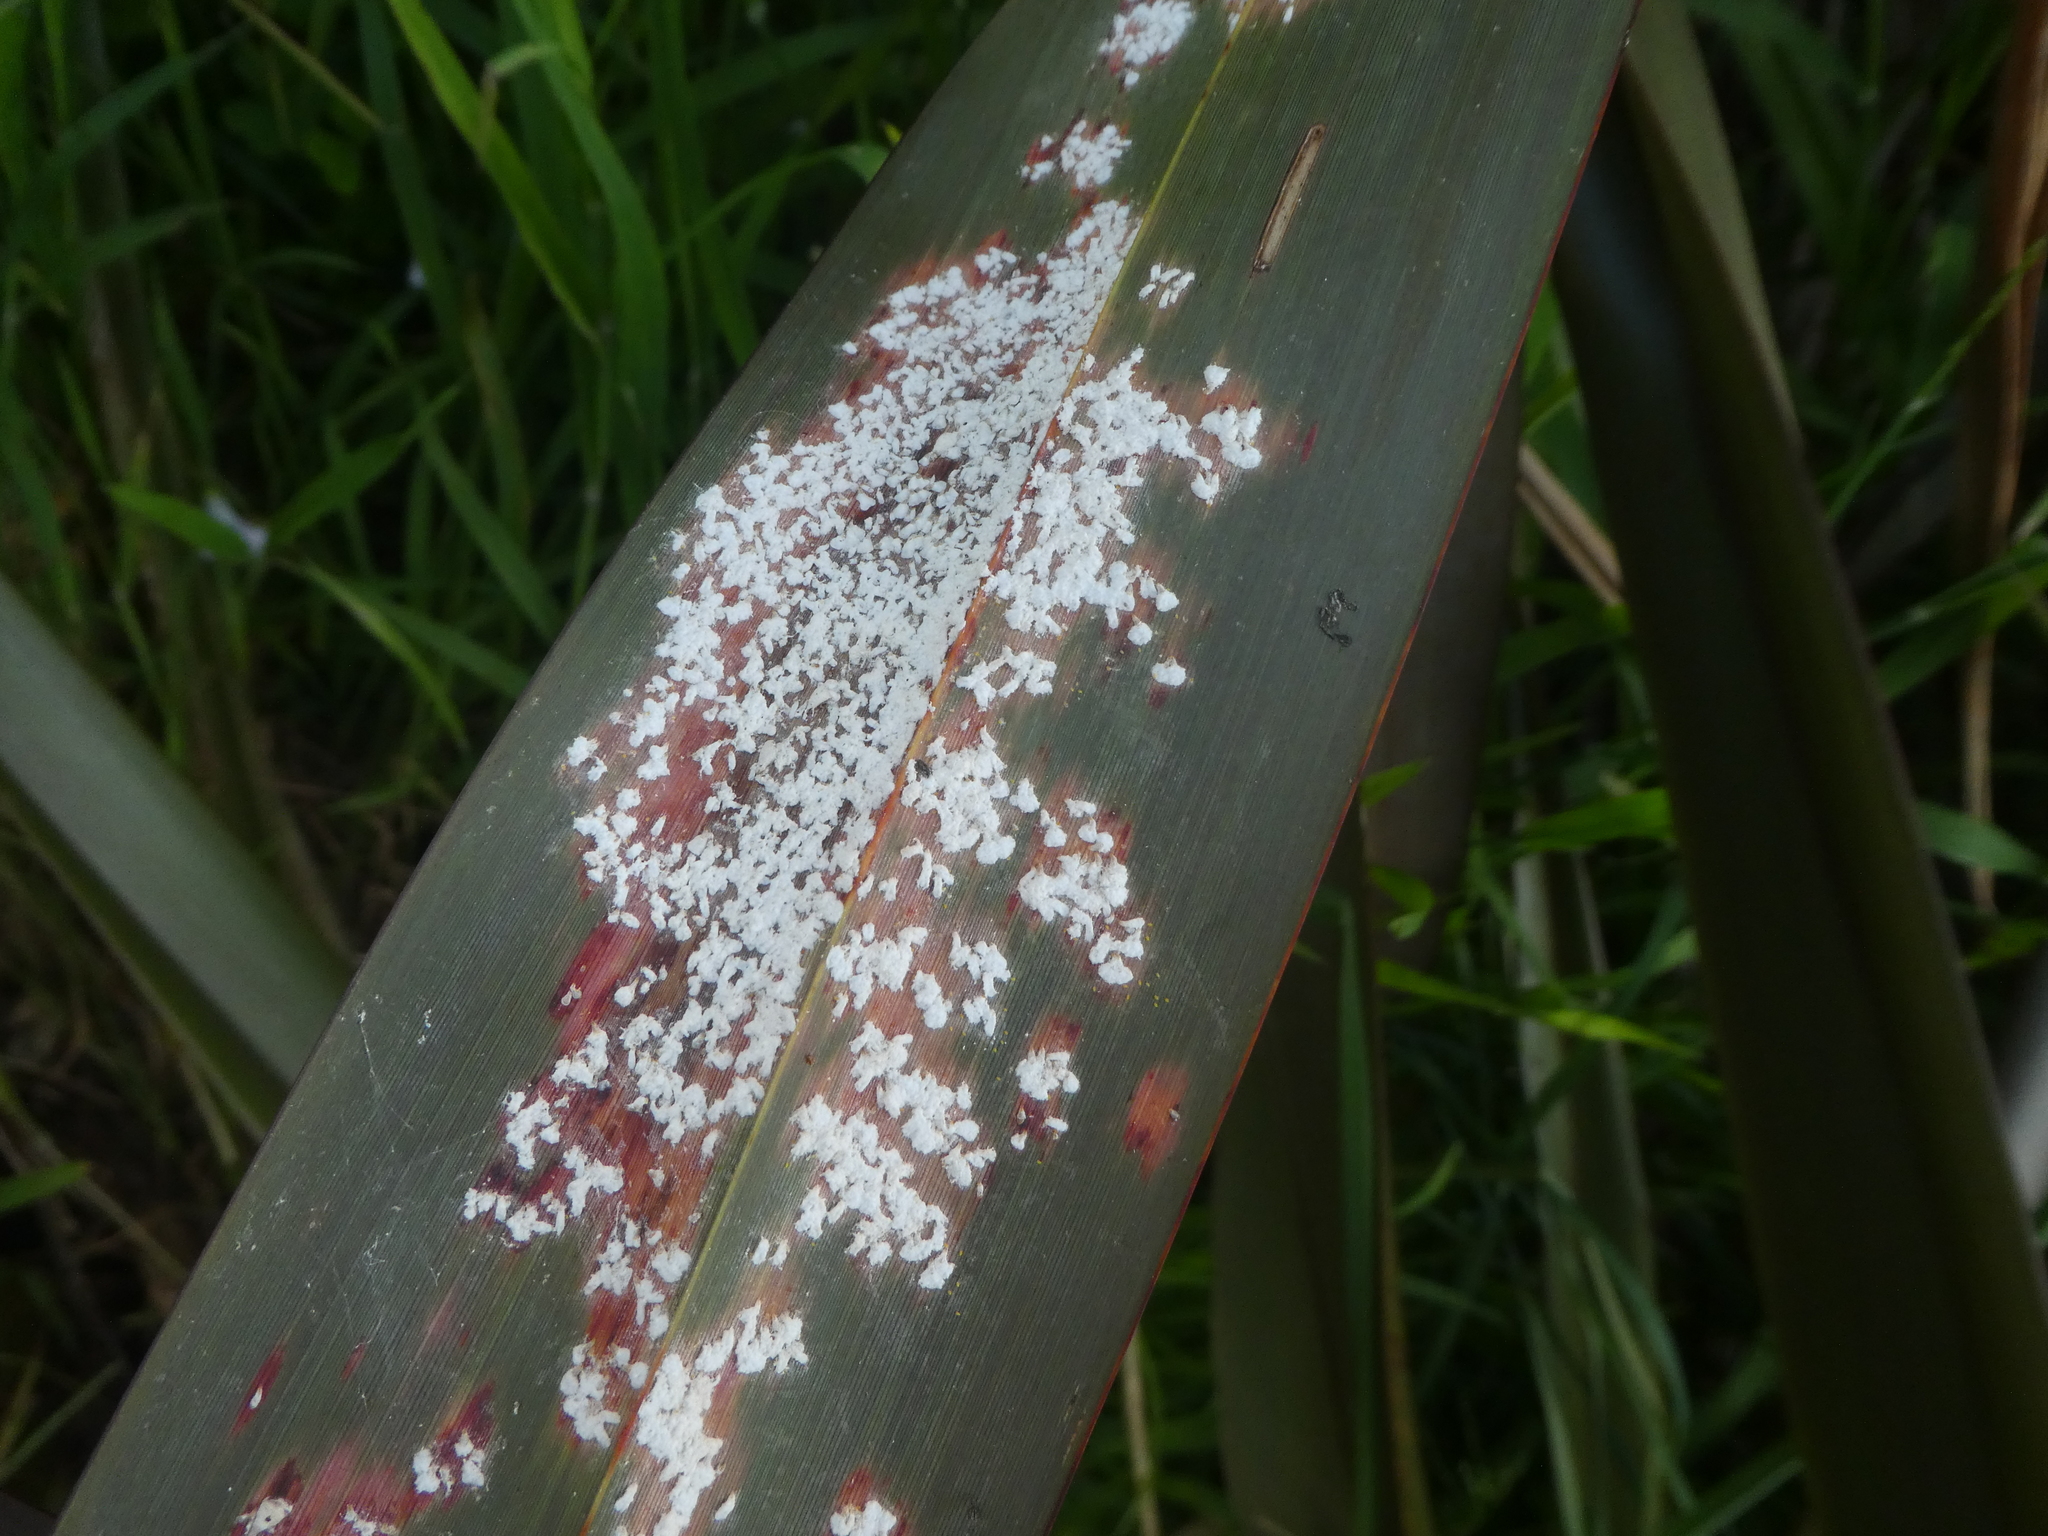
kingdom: Animalia
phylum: Arthropoda
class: Insecta
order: Hemiptera
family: Diaspididae
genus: Poliaspis
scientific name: Poliaspis floccosa
